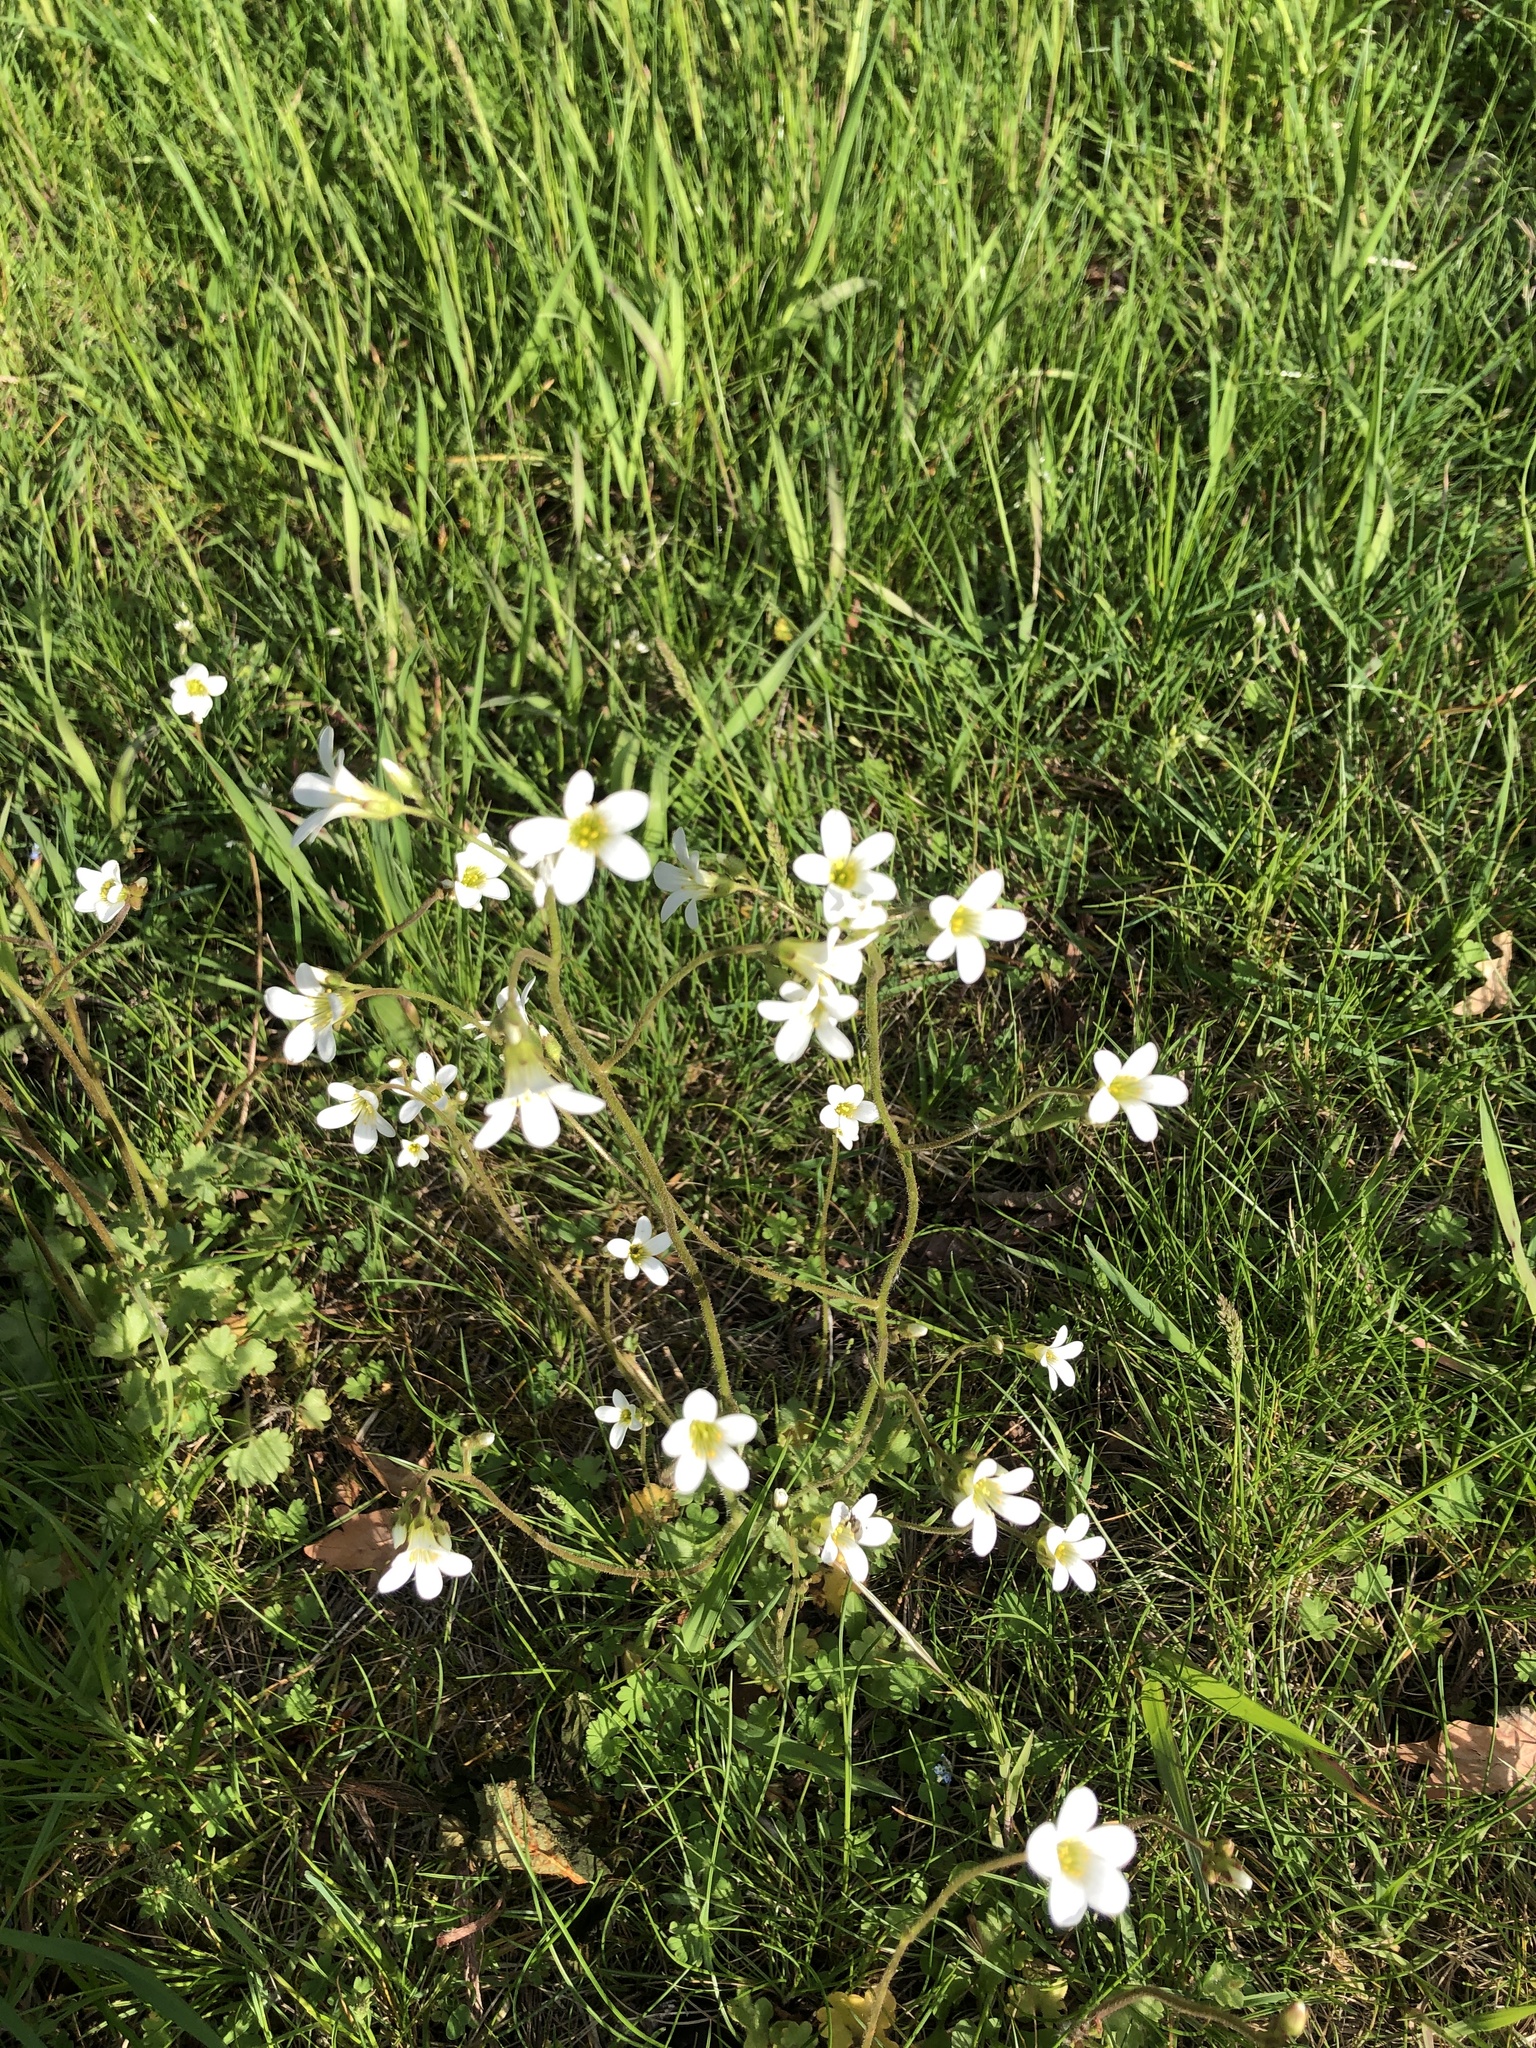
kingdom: Plantae
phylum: Tracheophyta
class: Magnoliopsida
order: Saxifragales
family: Saxifragaceae
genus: Saxifraga
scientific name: Saxifraga granulata
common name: Meadow saxifrage
